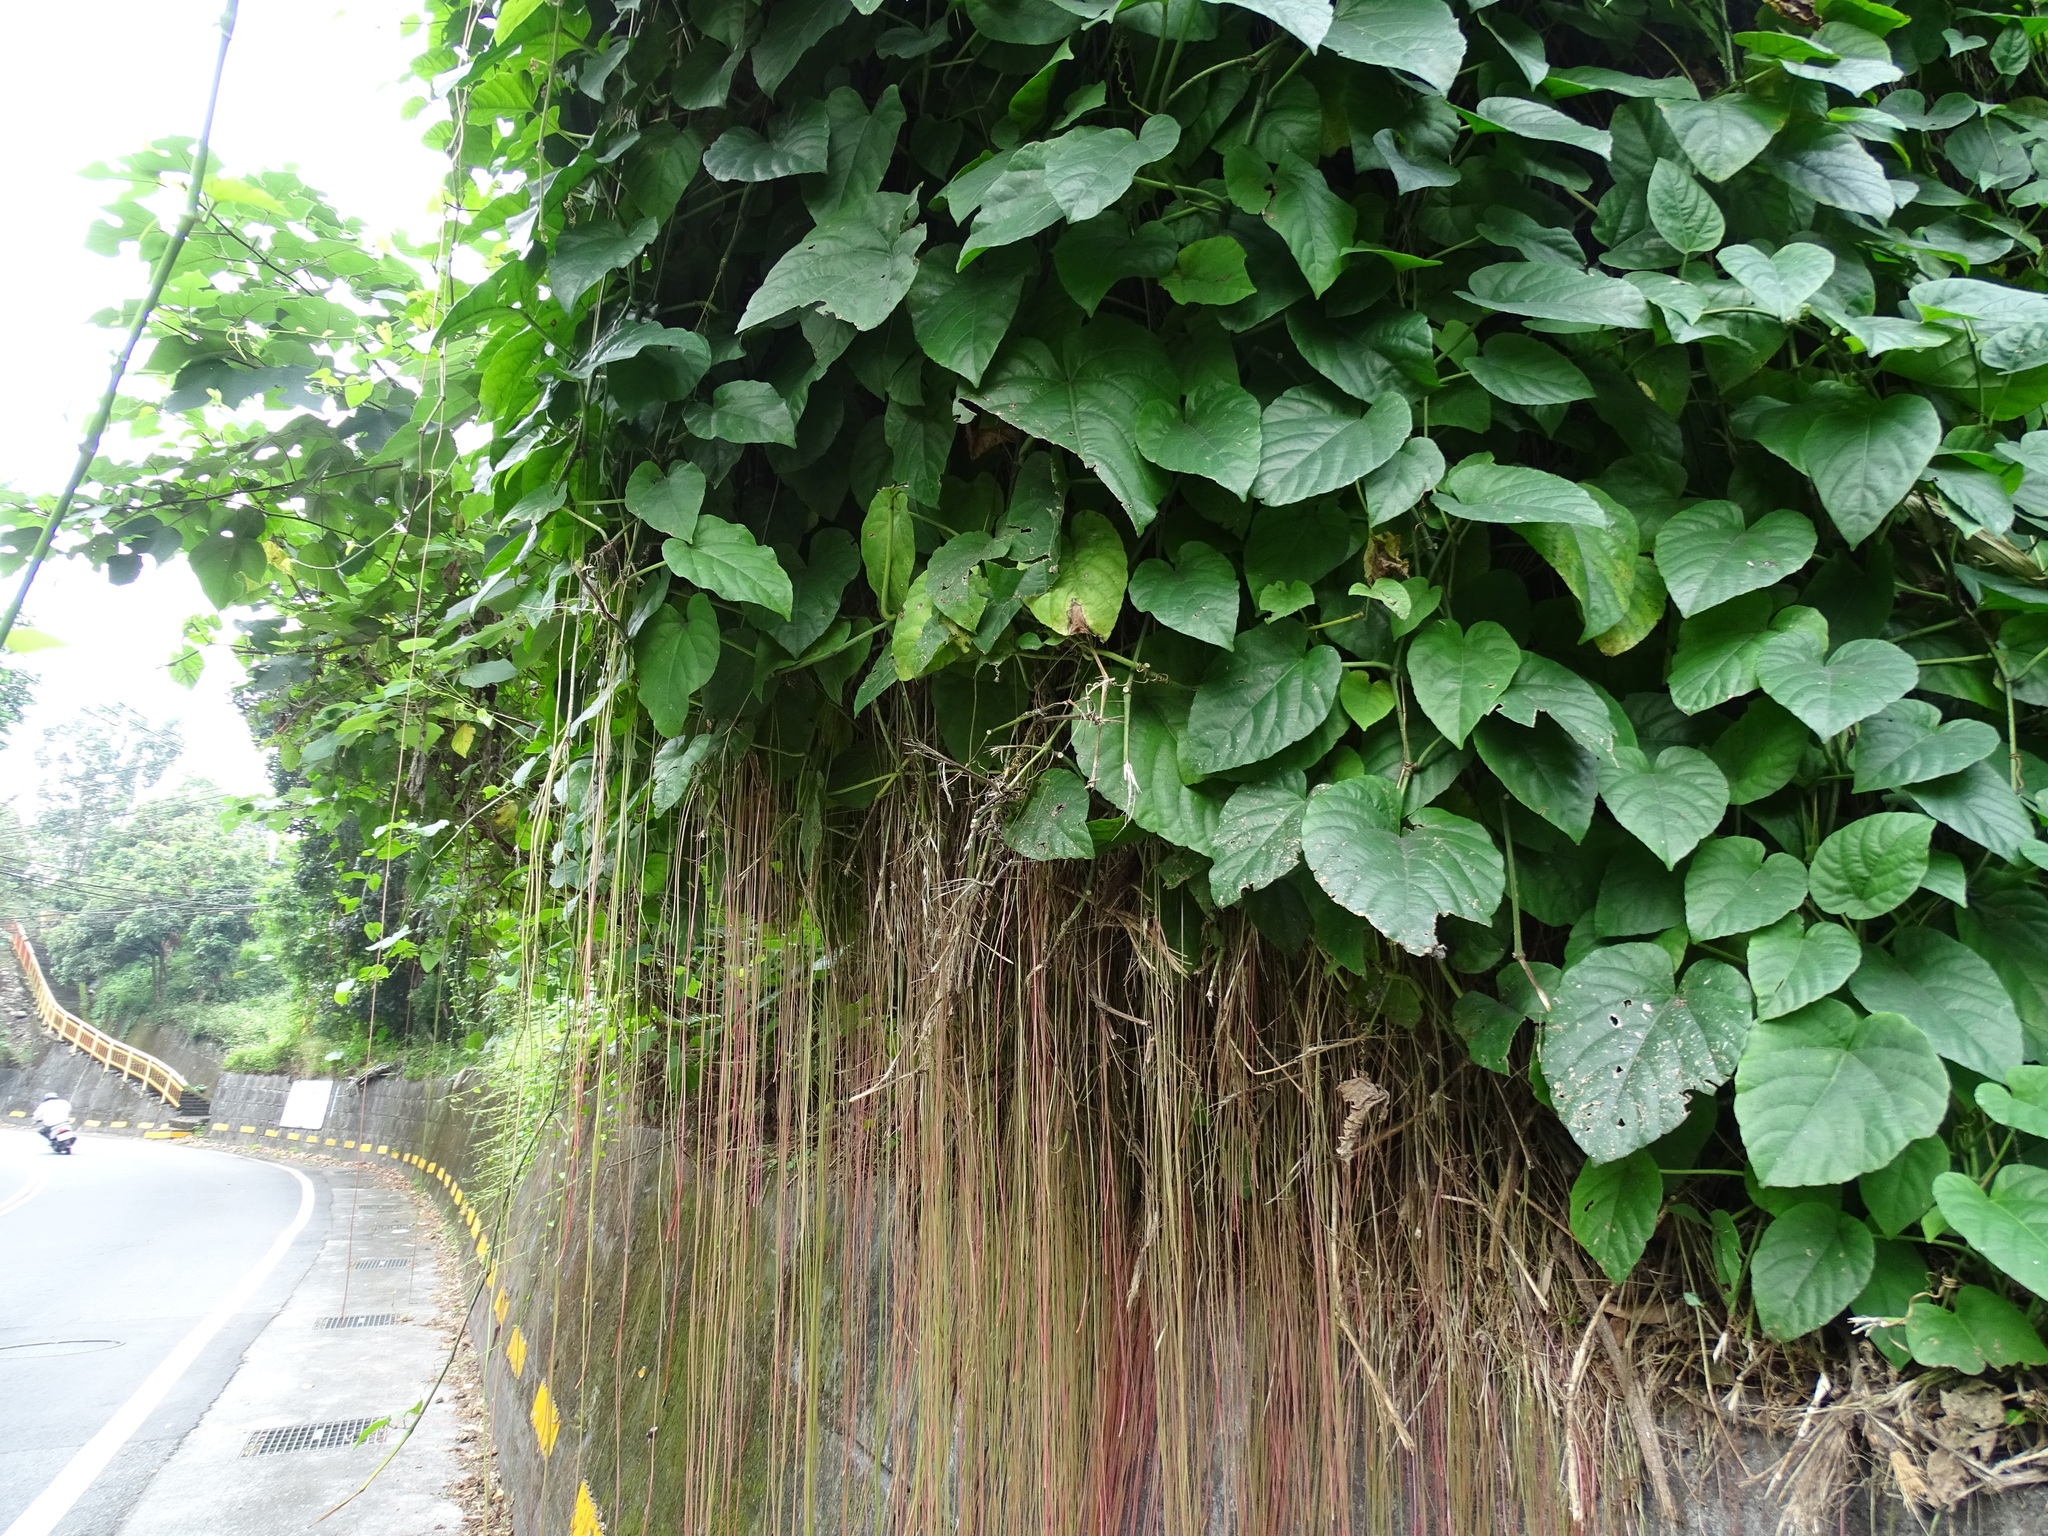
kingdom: Plantae
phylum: Tracheophyta
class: Magnoliopsida
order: Vitales
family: Vitaceae
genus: Cissus
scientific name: Cissus verticillata
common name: Princess vine
